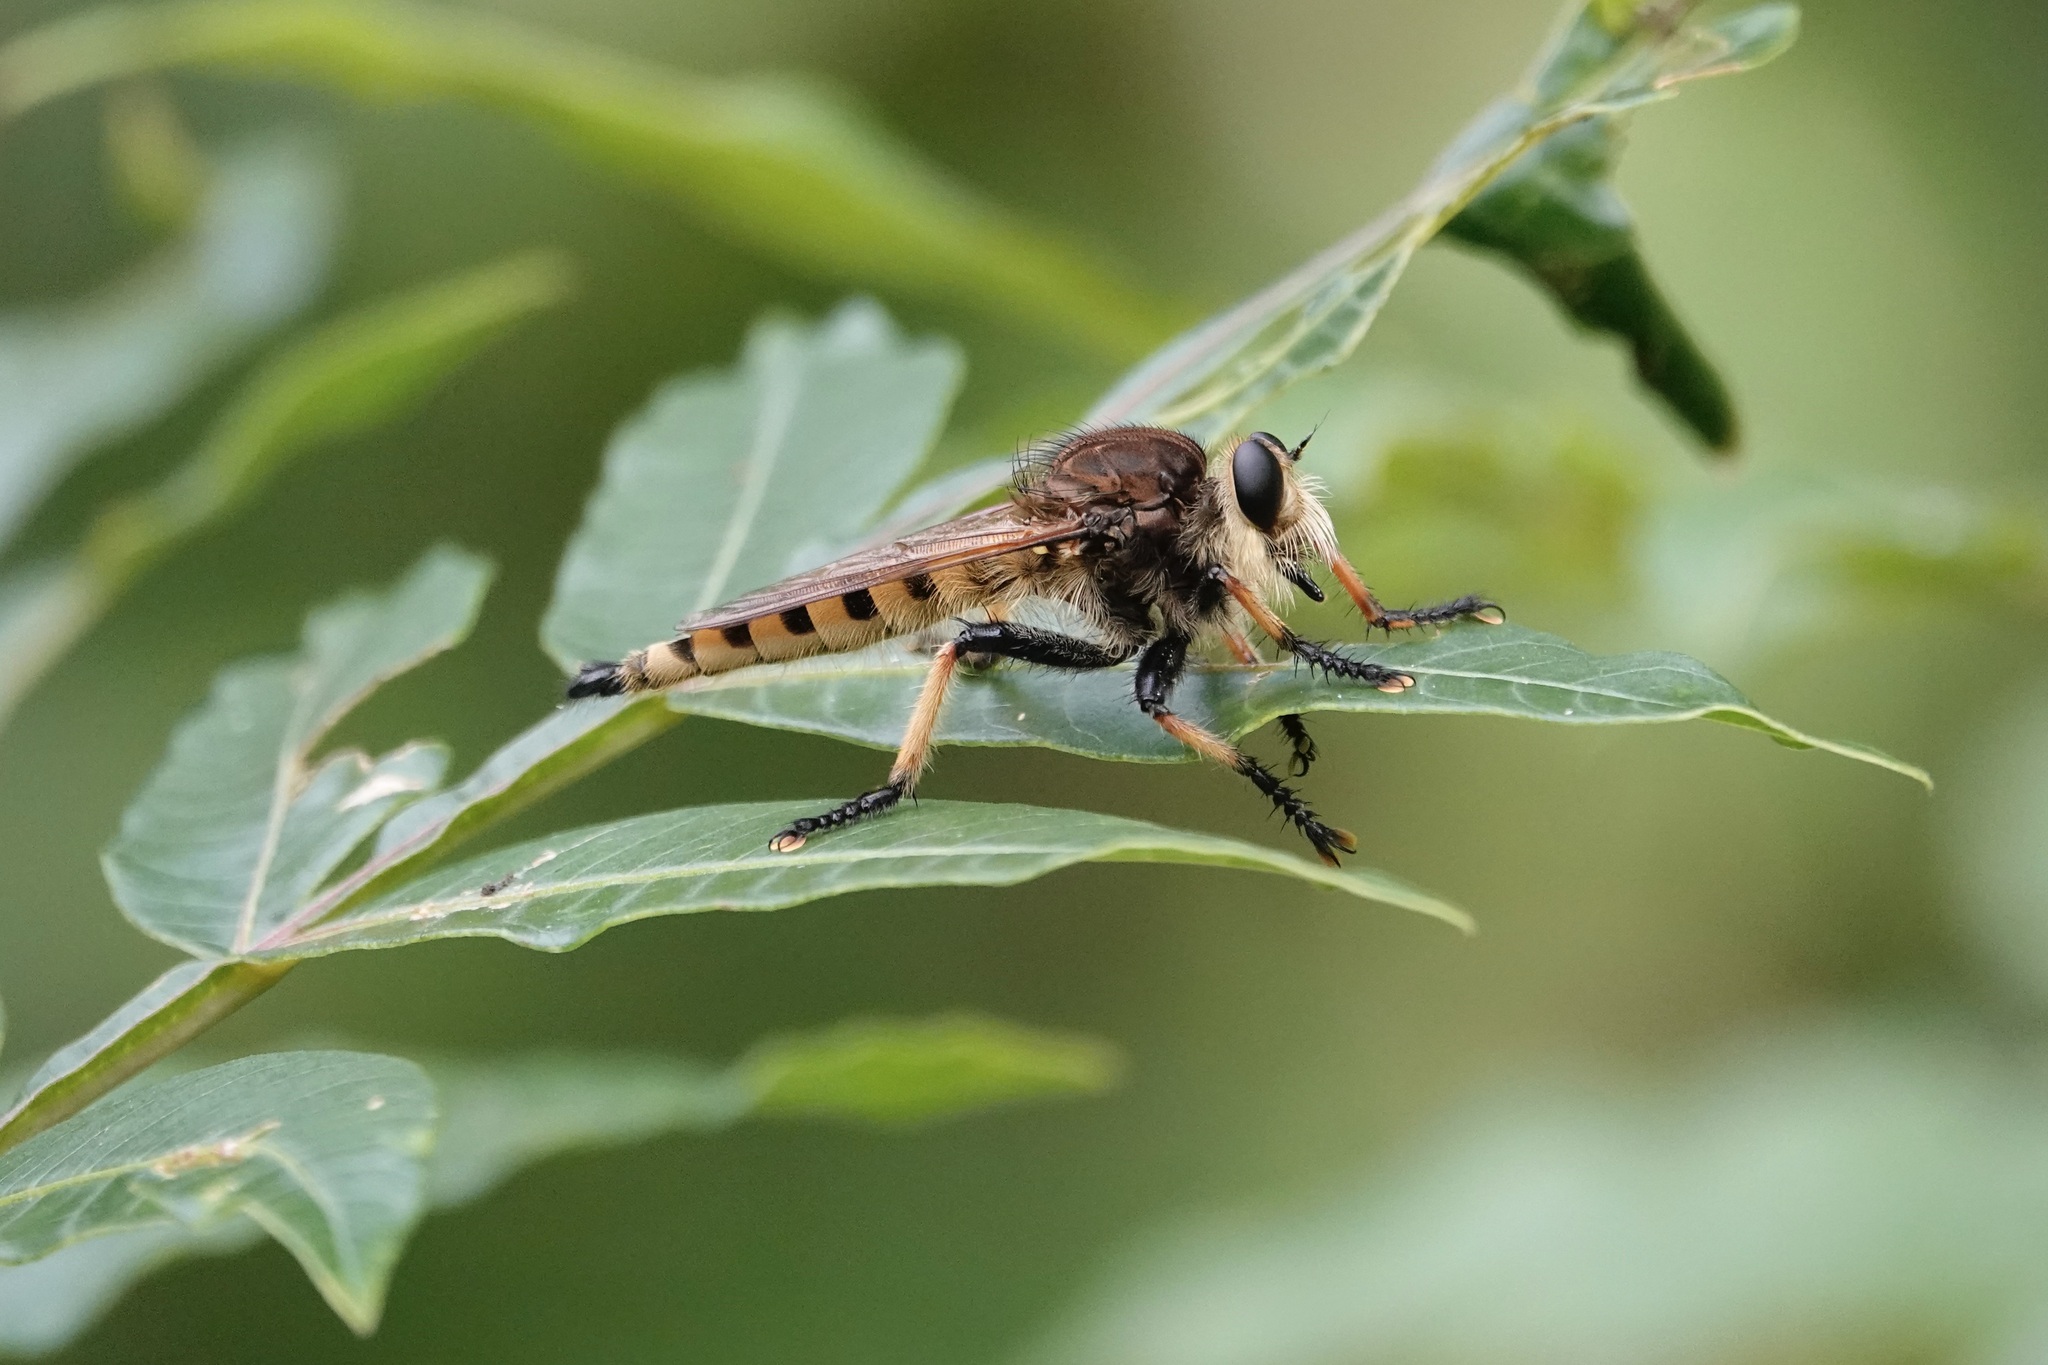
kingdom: Animalia
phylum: Arthropoda
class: Insecta
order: Diptera
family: Asilidae
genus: Promachus
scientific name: Promachus rufipes
